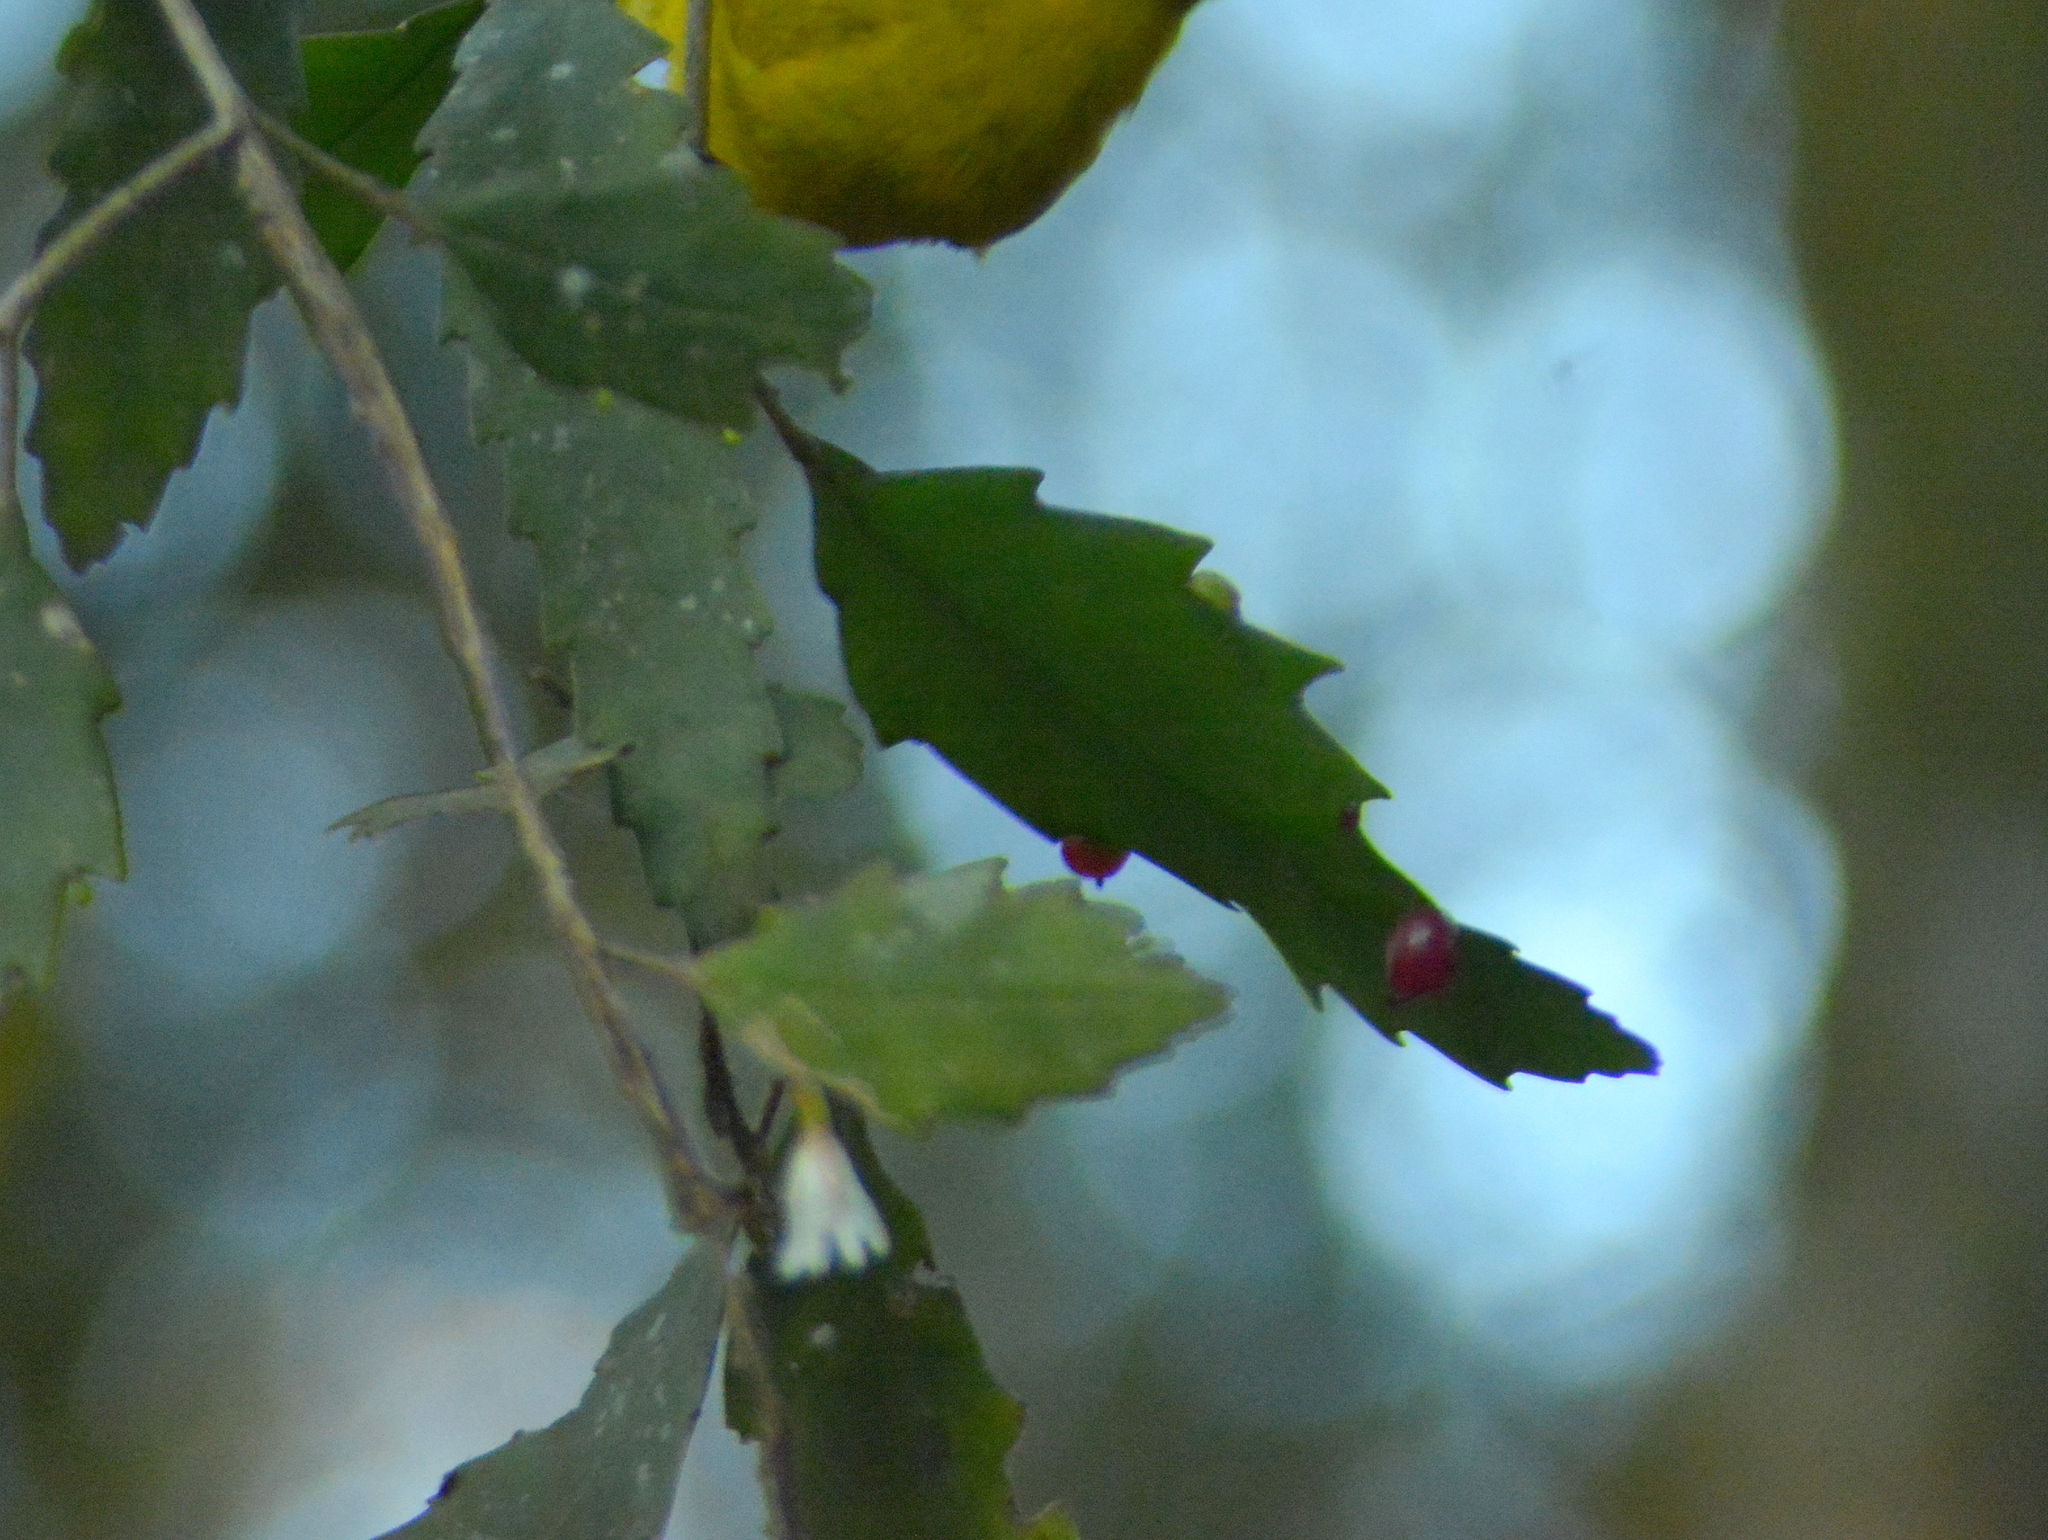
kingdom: Plantae
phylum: Tracheophyta
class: Magnoliopsida
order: Caryophyllales
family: Cactaceae
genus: Lepismium
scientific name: Lepismium houlletianum
